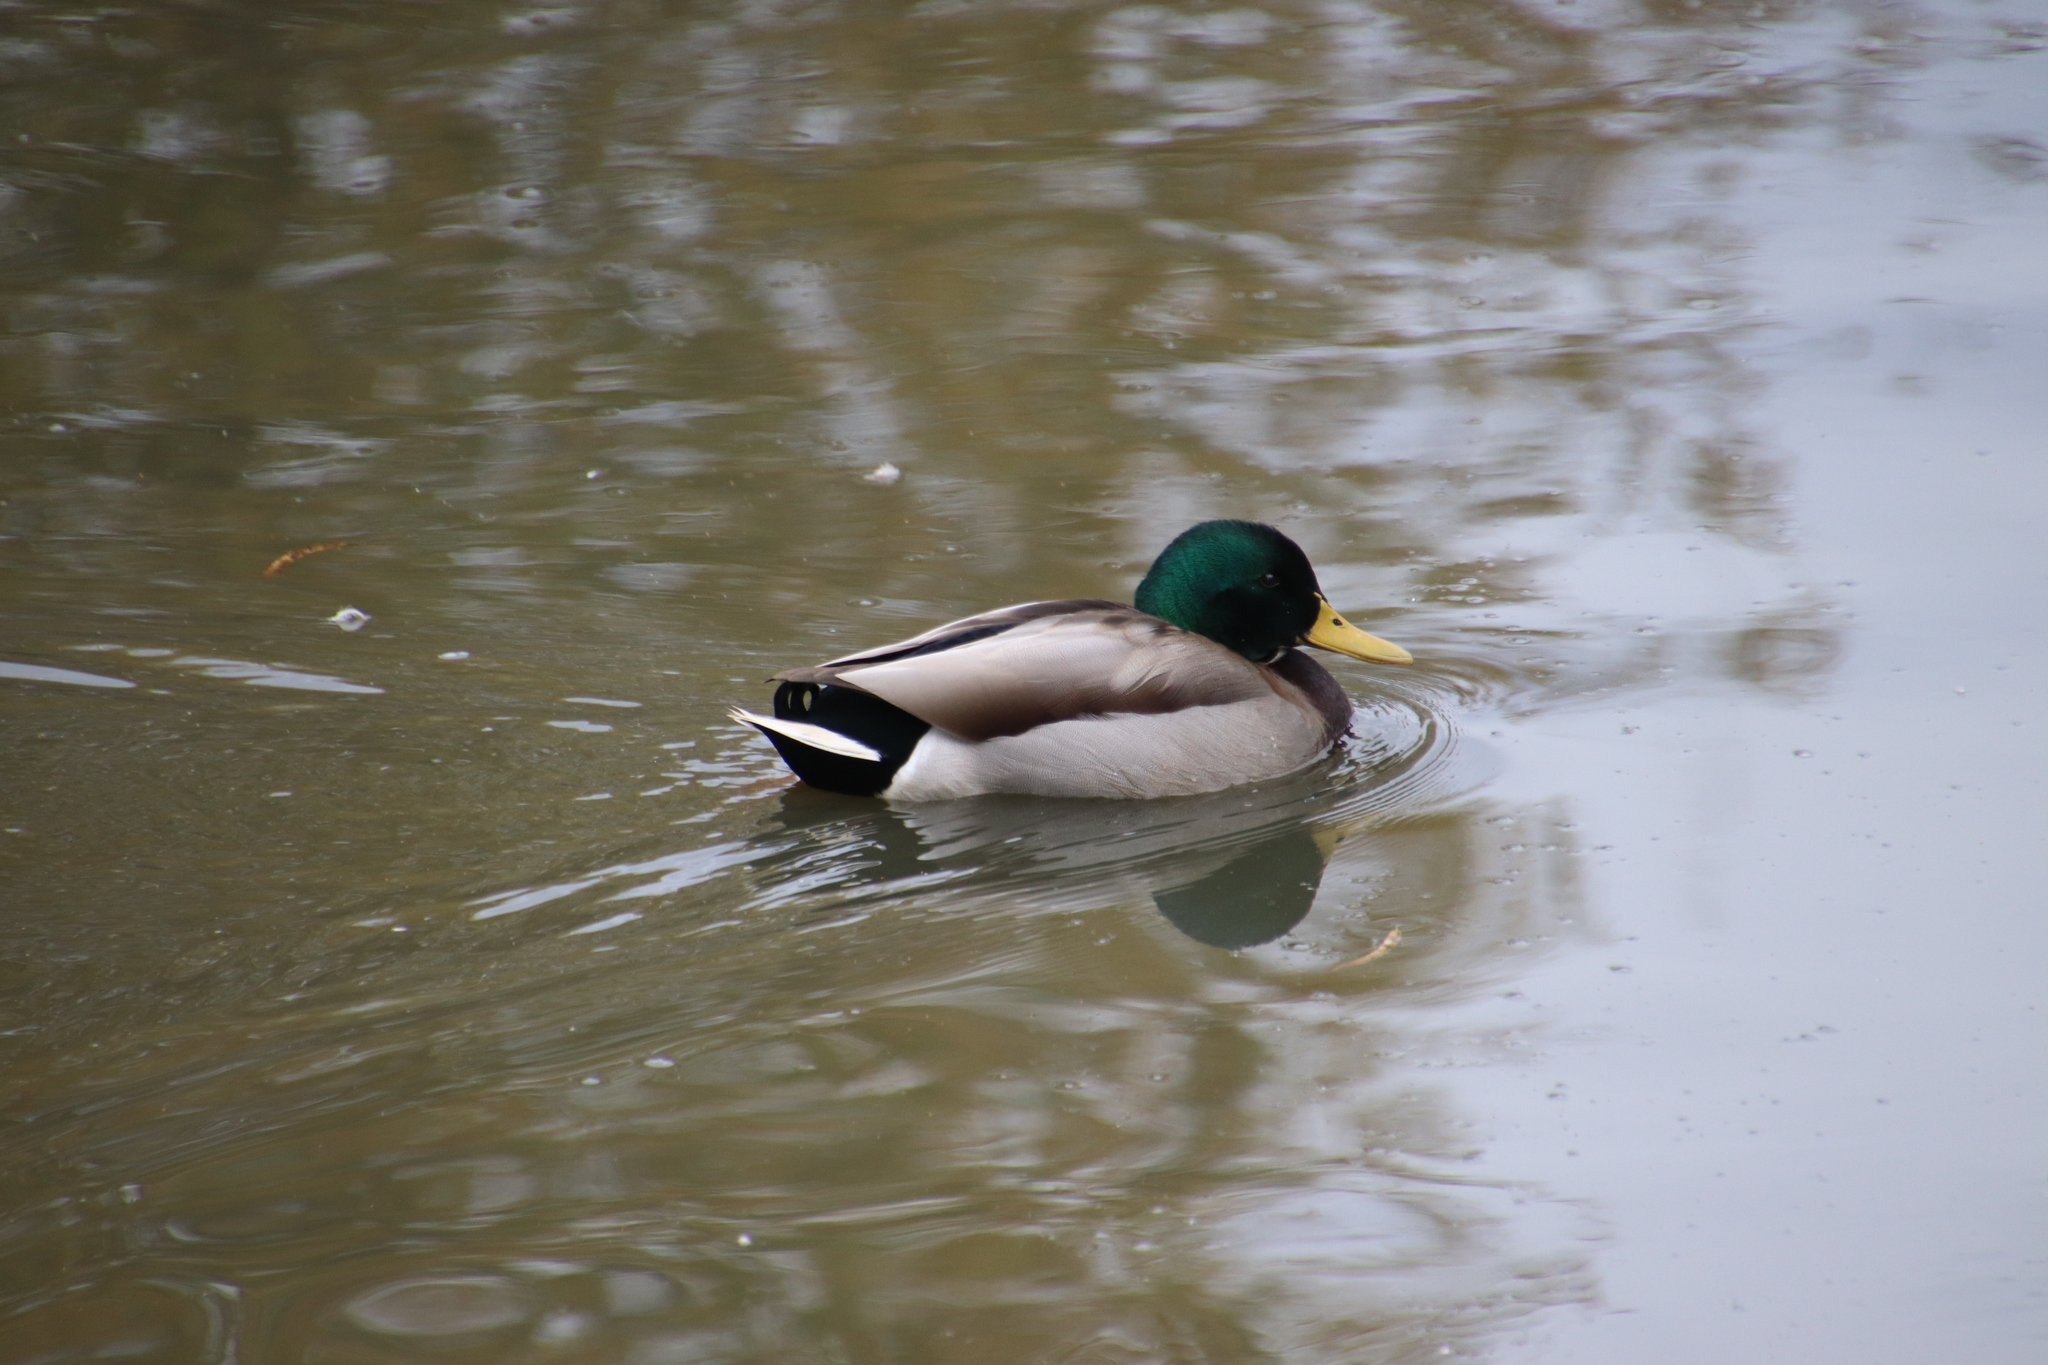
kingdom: Animalia
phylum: Chordata
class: Aves
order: Anseriformes
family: Anatidae
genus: Anas
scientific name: Anas platyrhynchos
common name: Mallard
